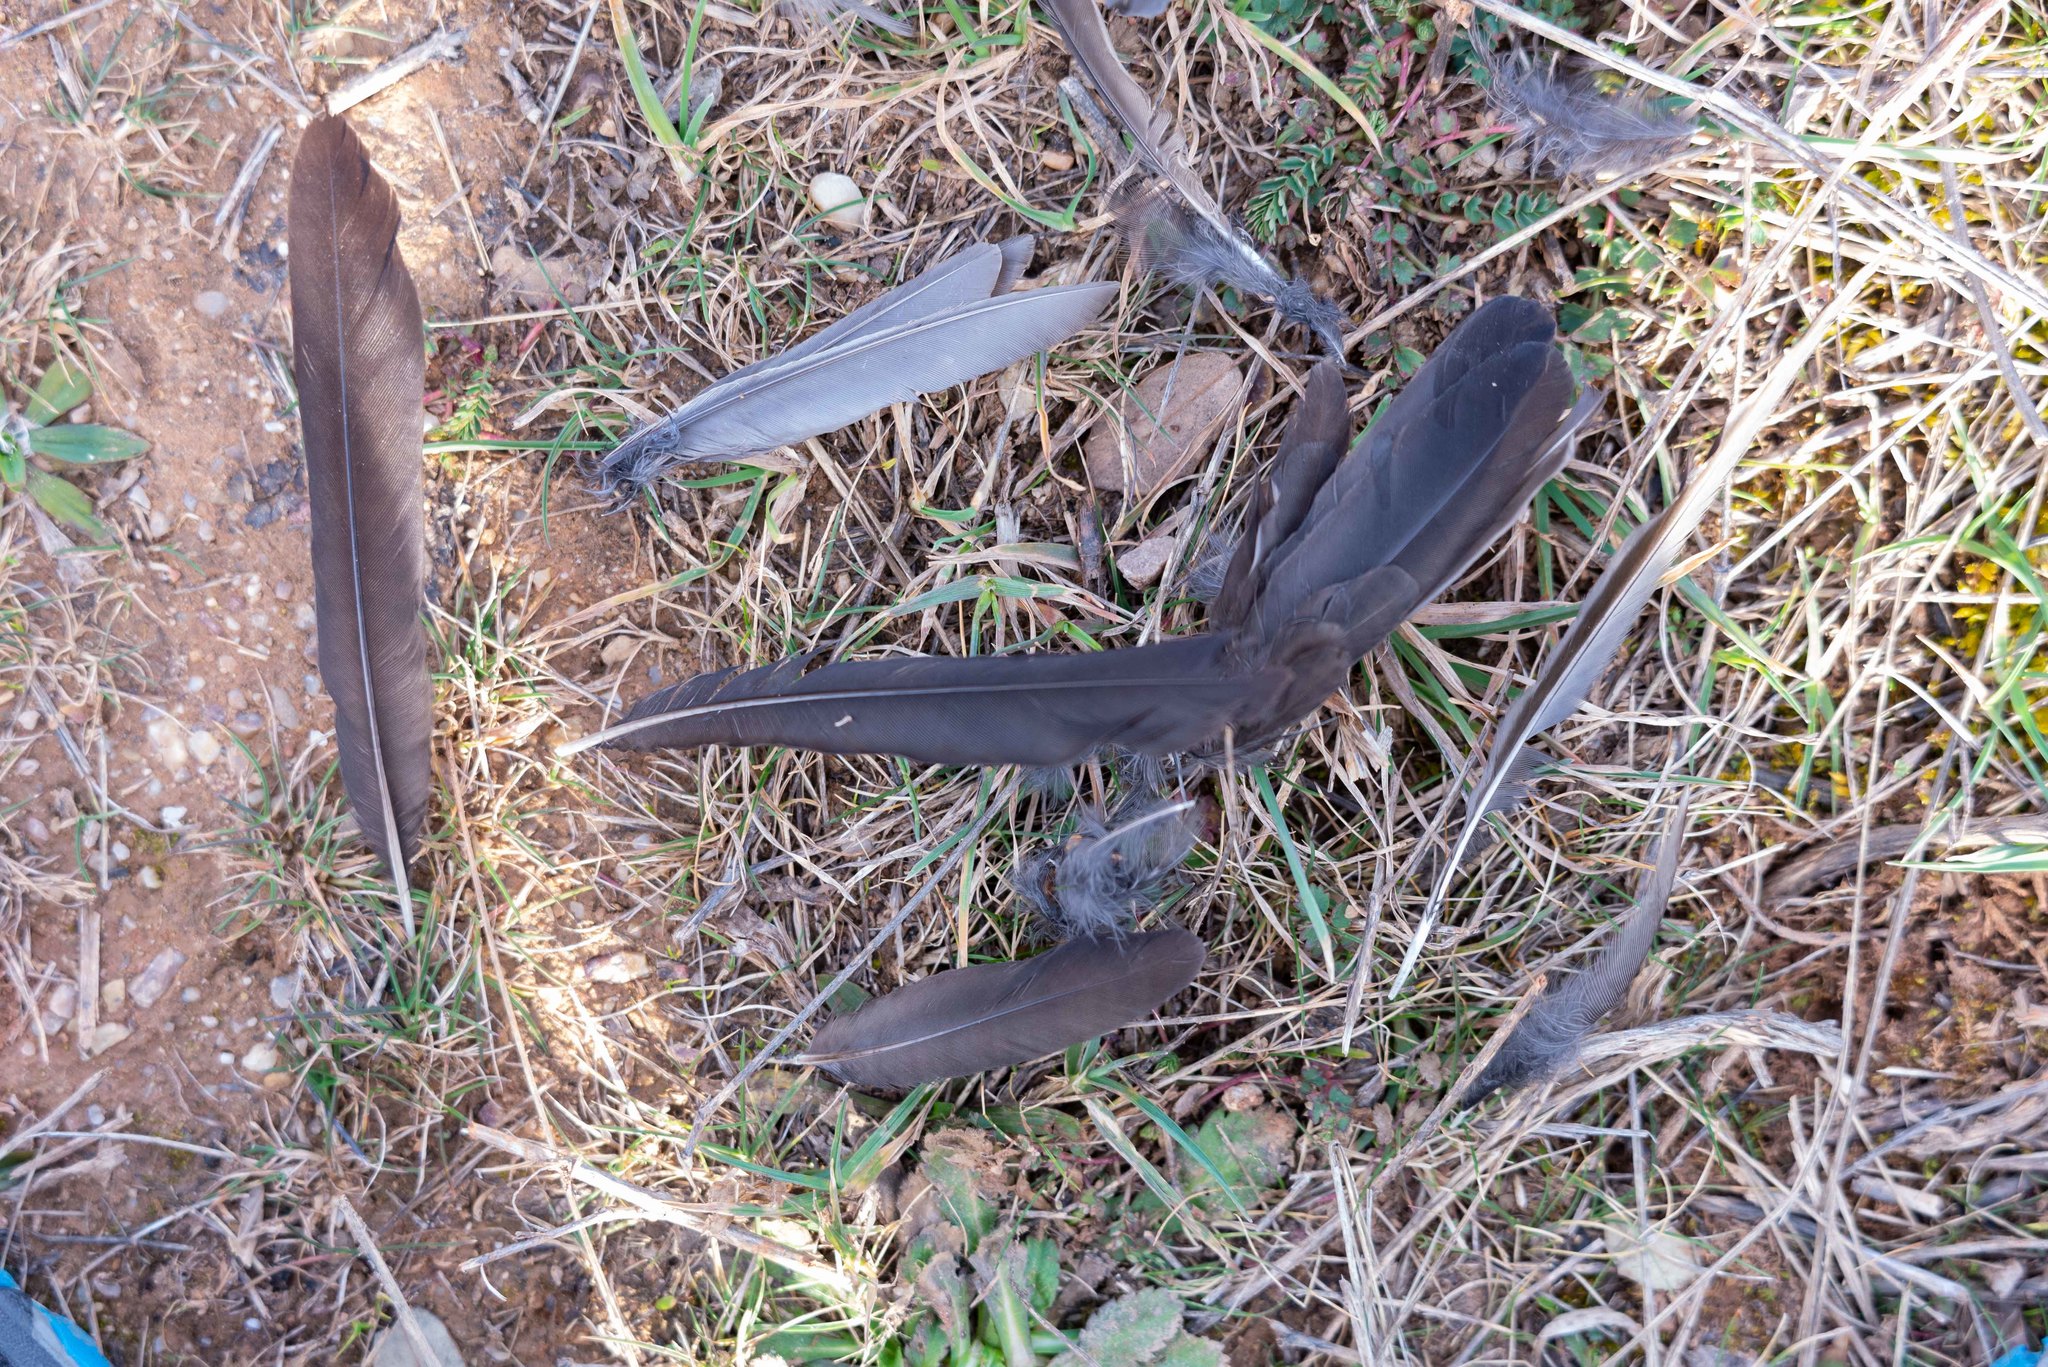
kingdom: Animalia
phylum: Chordata
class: Aves
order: Passeriformes
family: Turdidae
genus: Turdus
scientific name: Turdus merula
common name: Common blackbird
